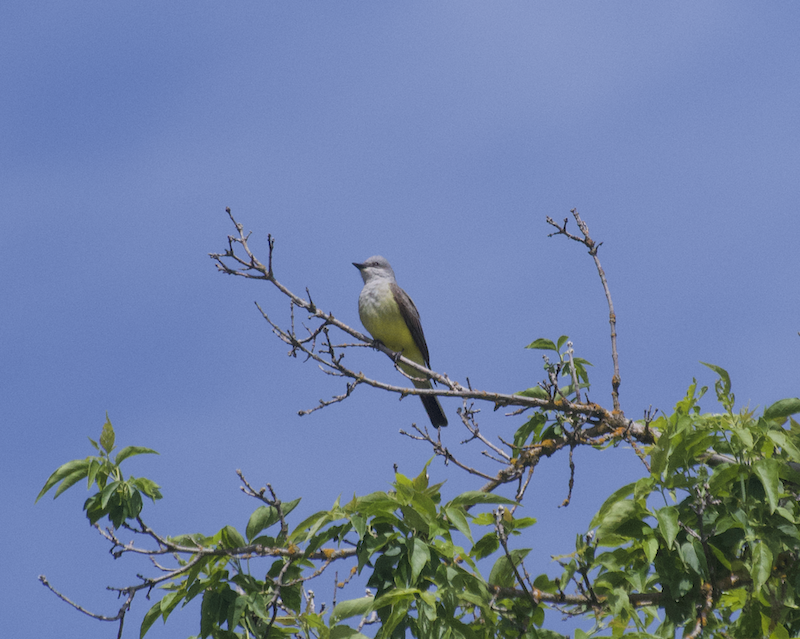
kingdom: Animalia
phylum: Chordata
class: Aves
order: Passeriformes
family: Tyrannidae
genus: Tyrannus
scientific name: Tyrannus verticalis
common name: Western kingbird
